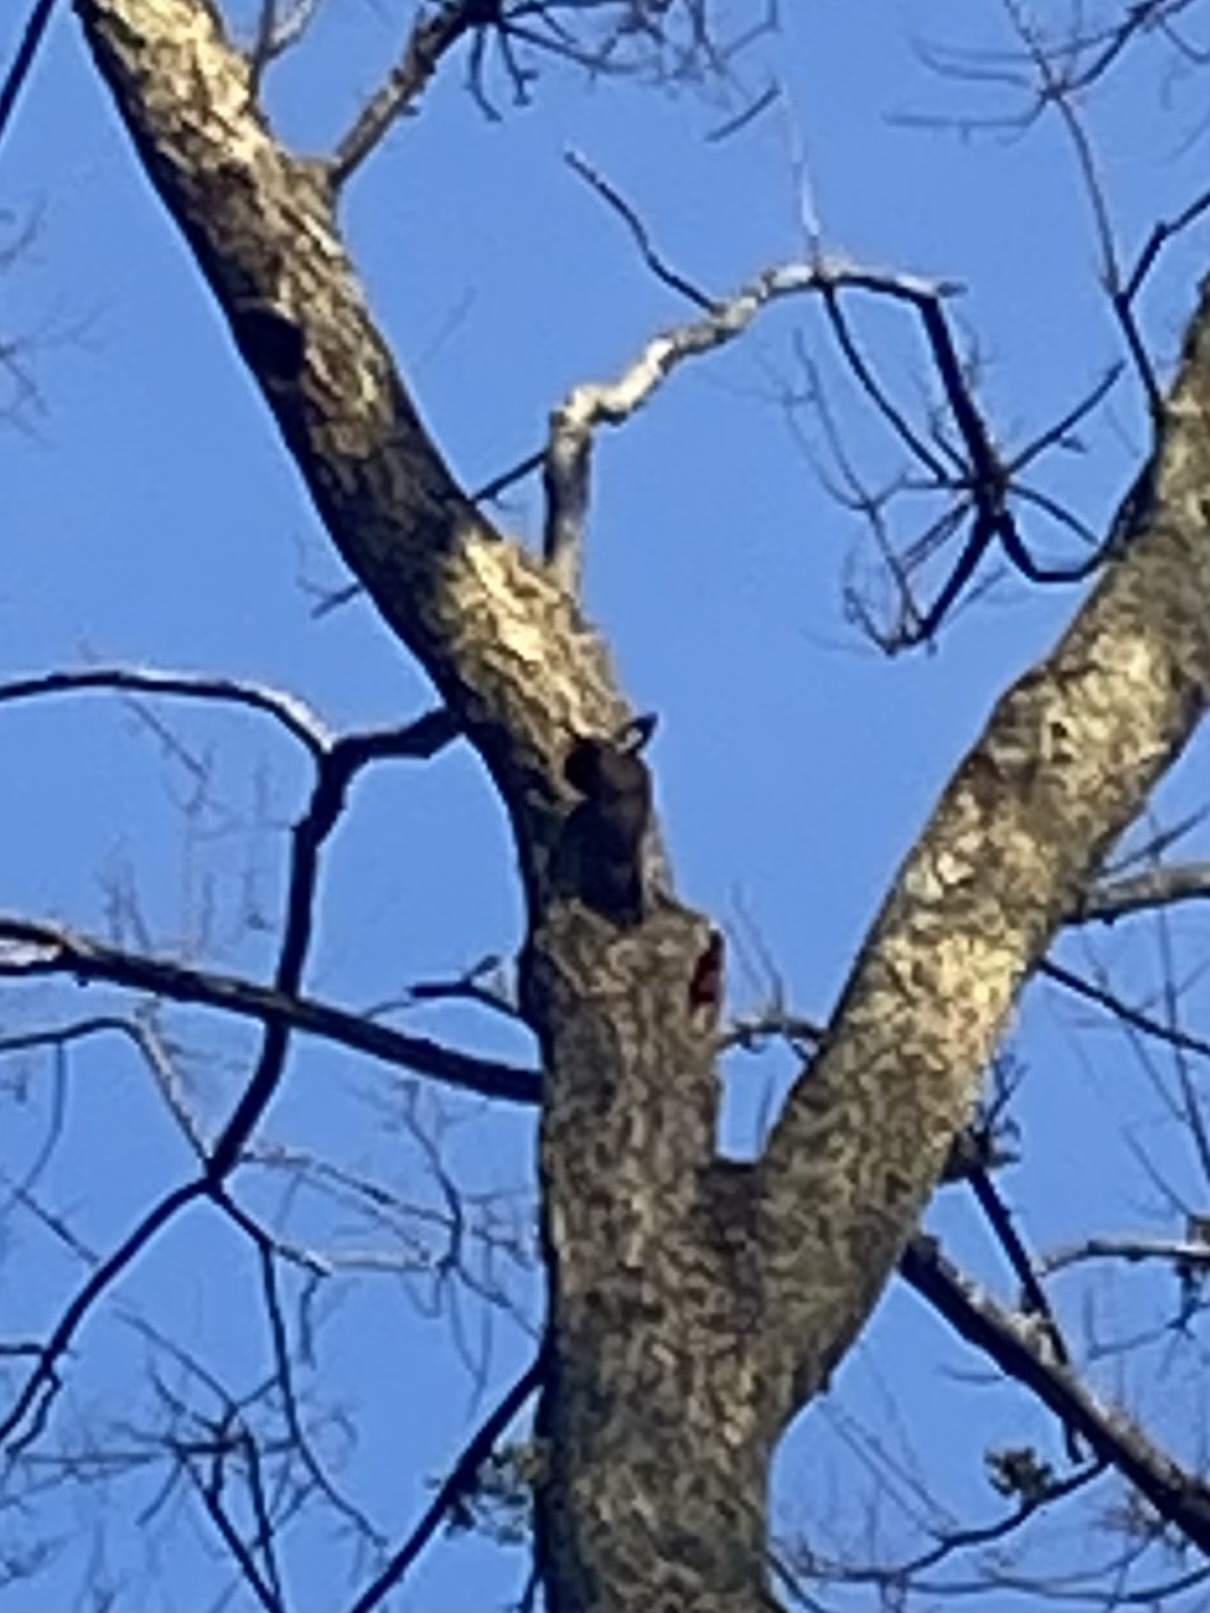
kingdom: Animalia
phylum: Chordata
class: Aves
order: Piciformes
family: Picidae
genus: Dryocopus
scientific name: Dryocopus pileatus
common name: Pileated woodpecker
